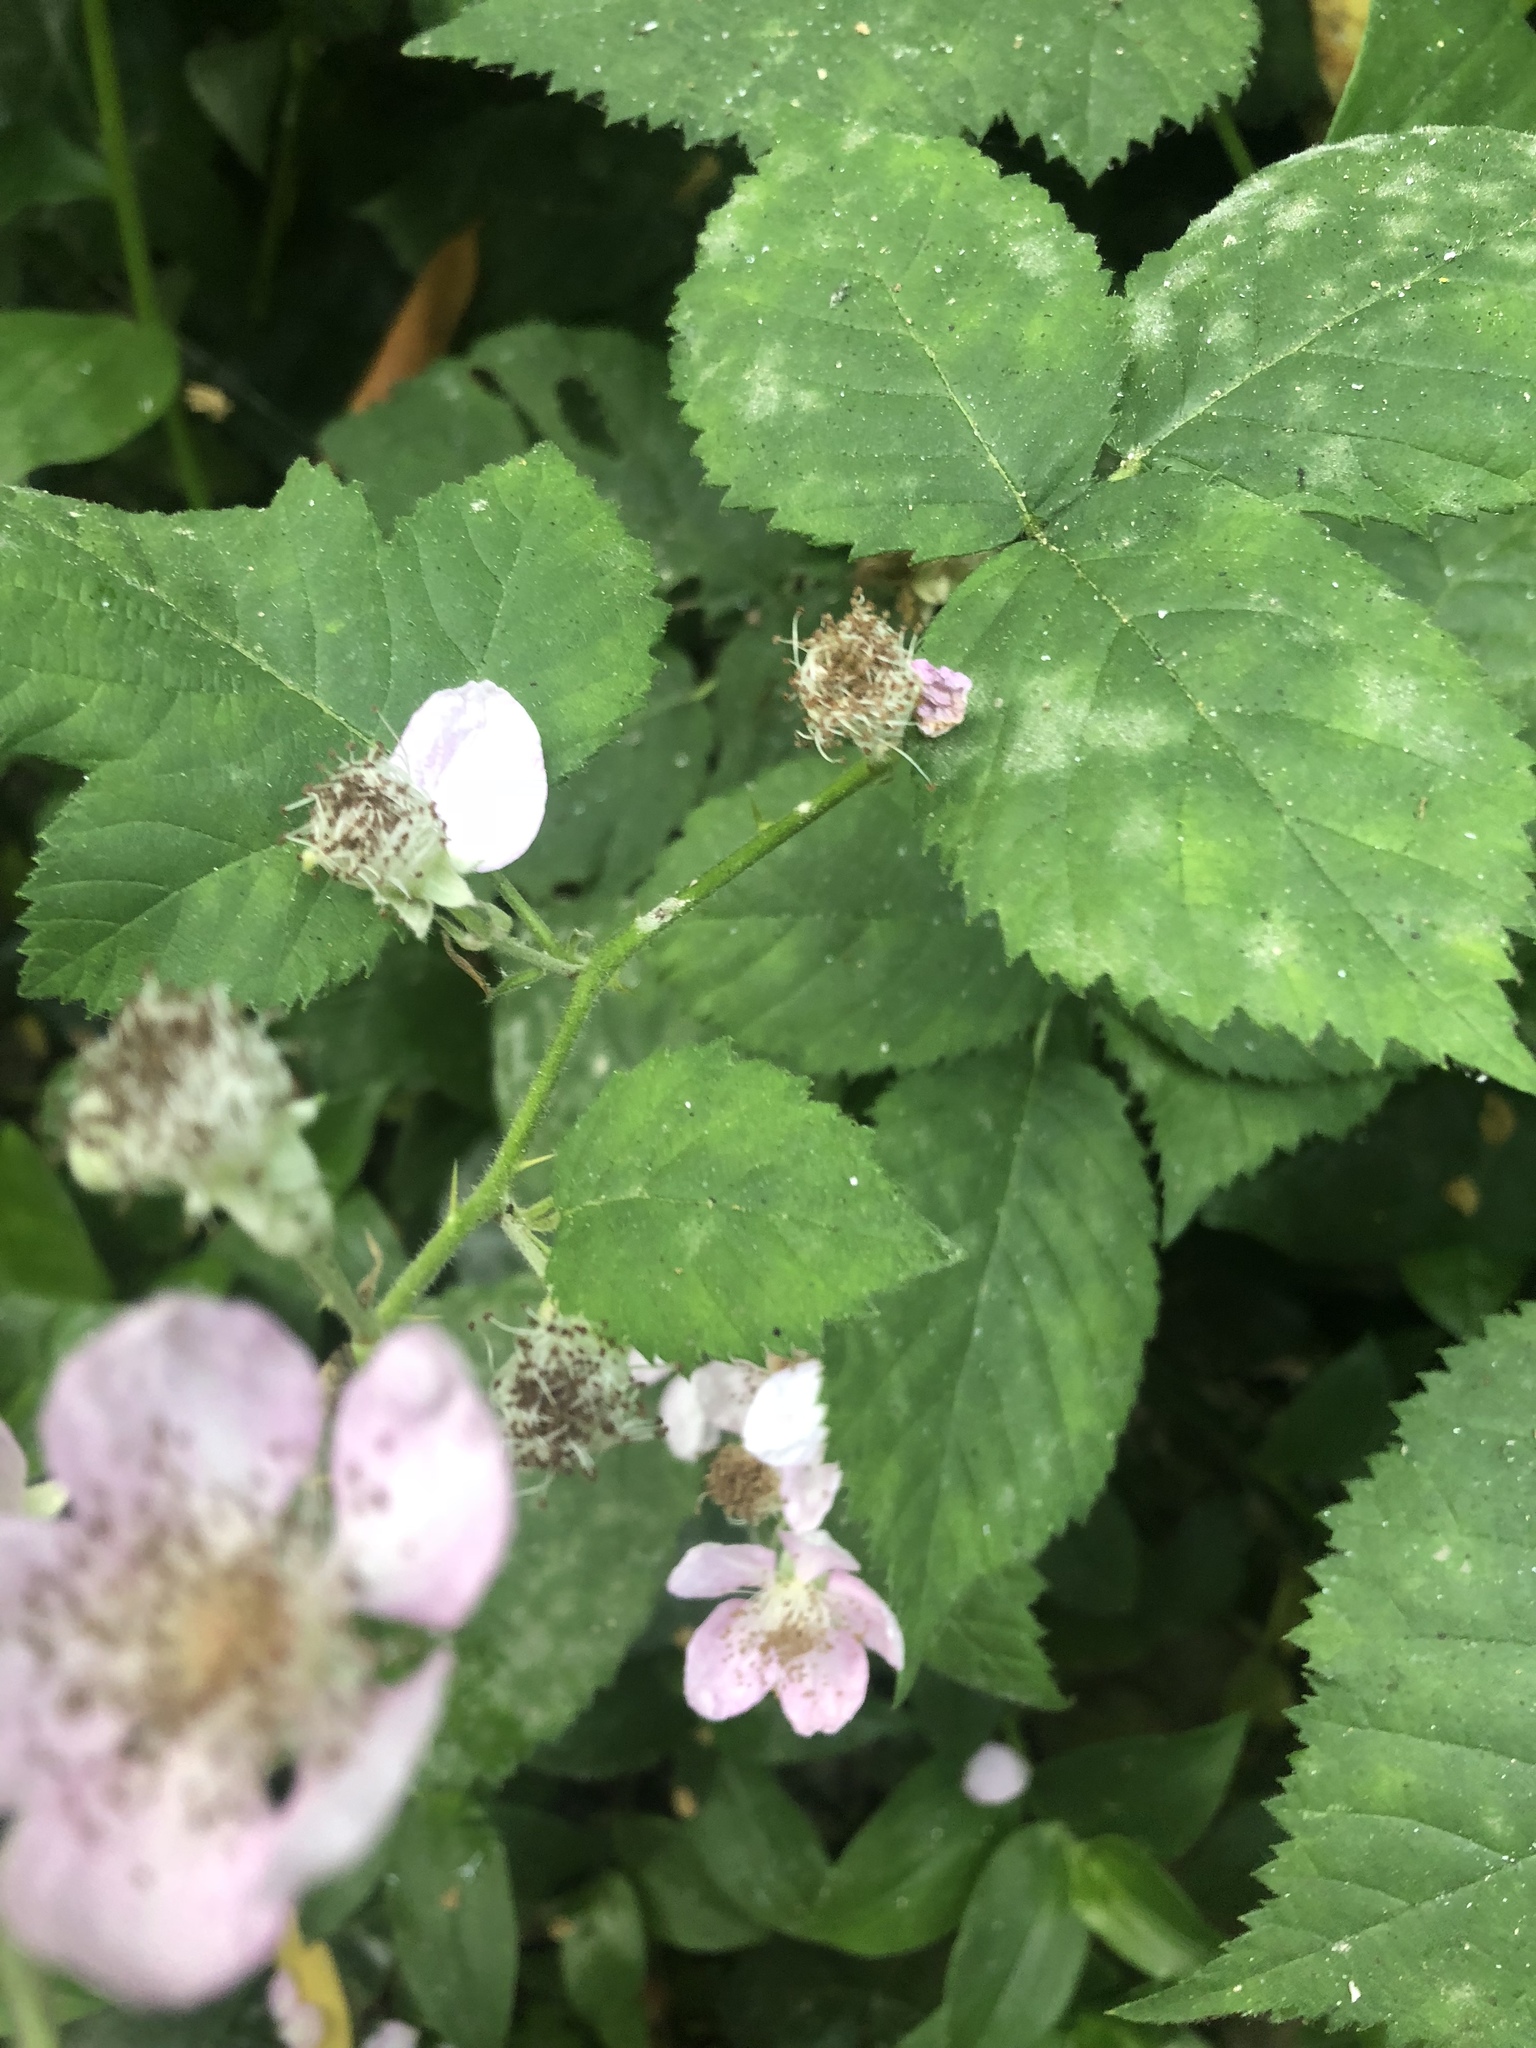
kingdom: Plantae
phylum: Tracheophyta
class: Magnoliopsida
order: Rosales
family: Rosaceae
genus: Rubus
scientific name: Rubus armeniacus
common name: Himalayan blackberry
